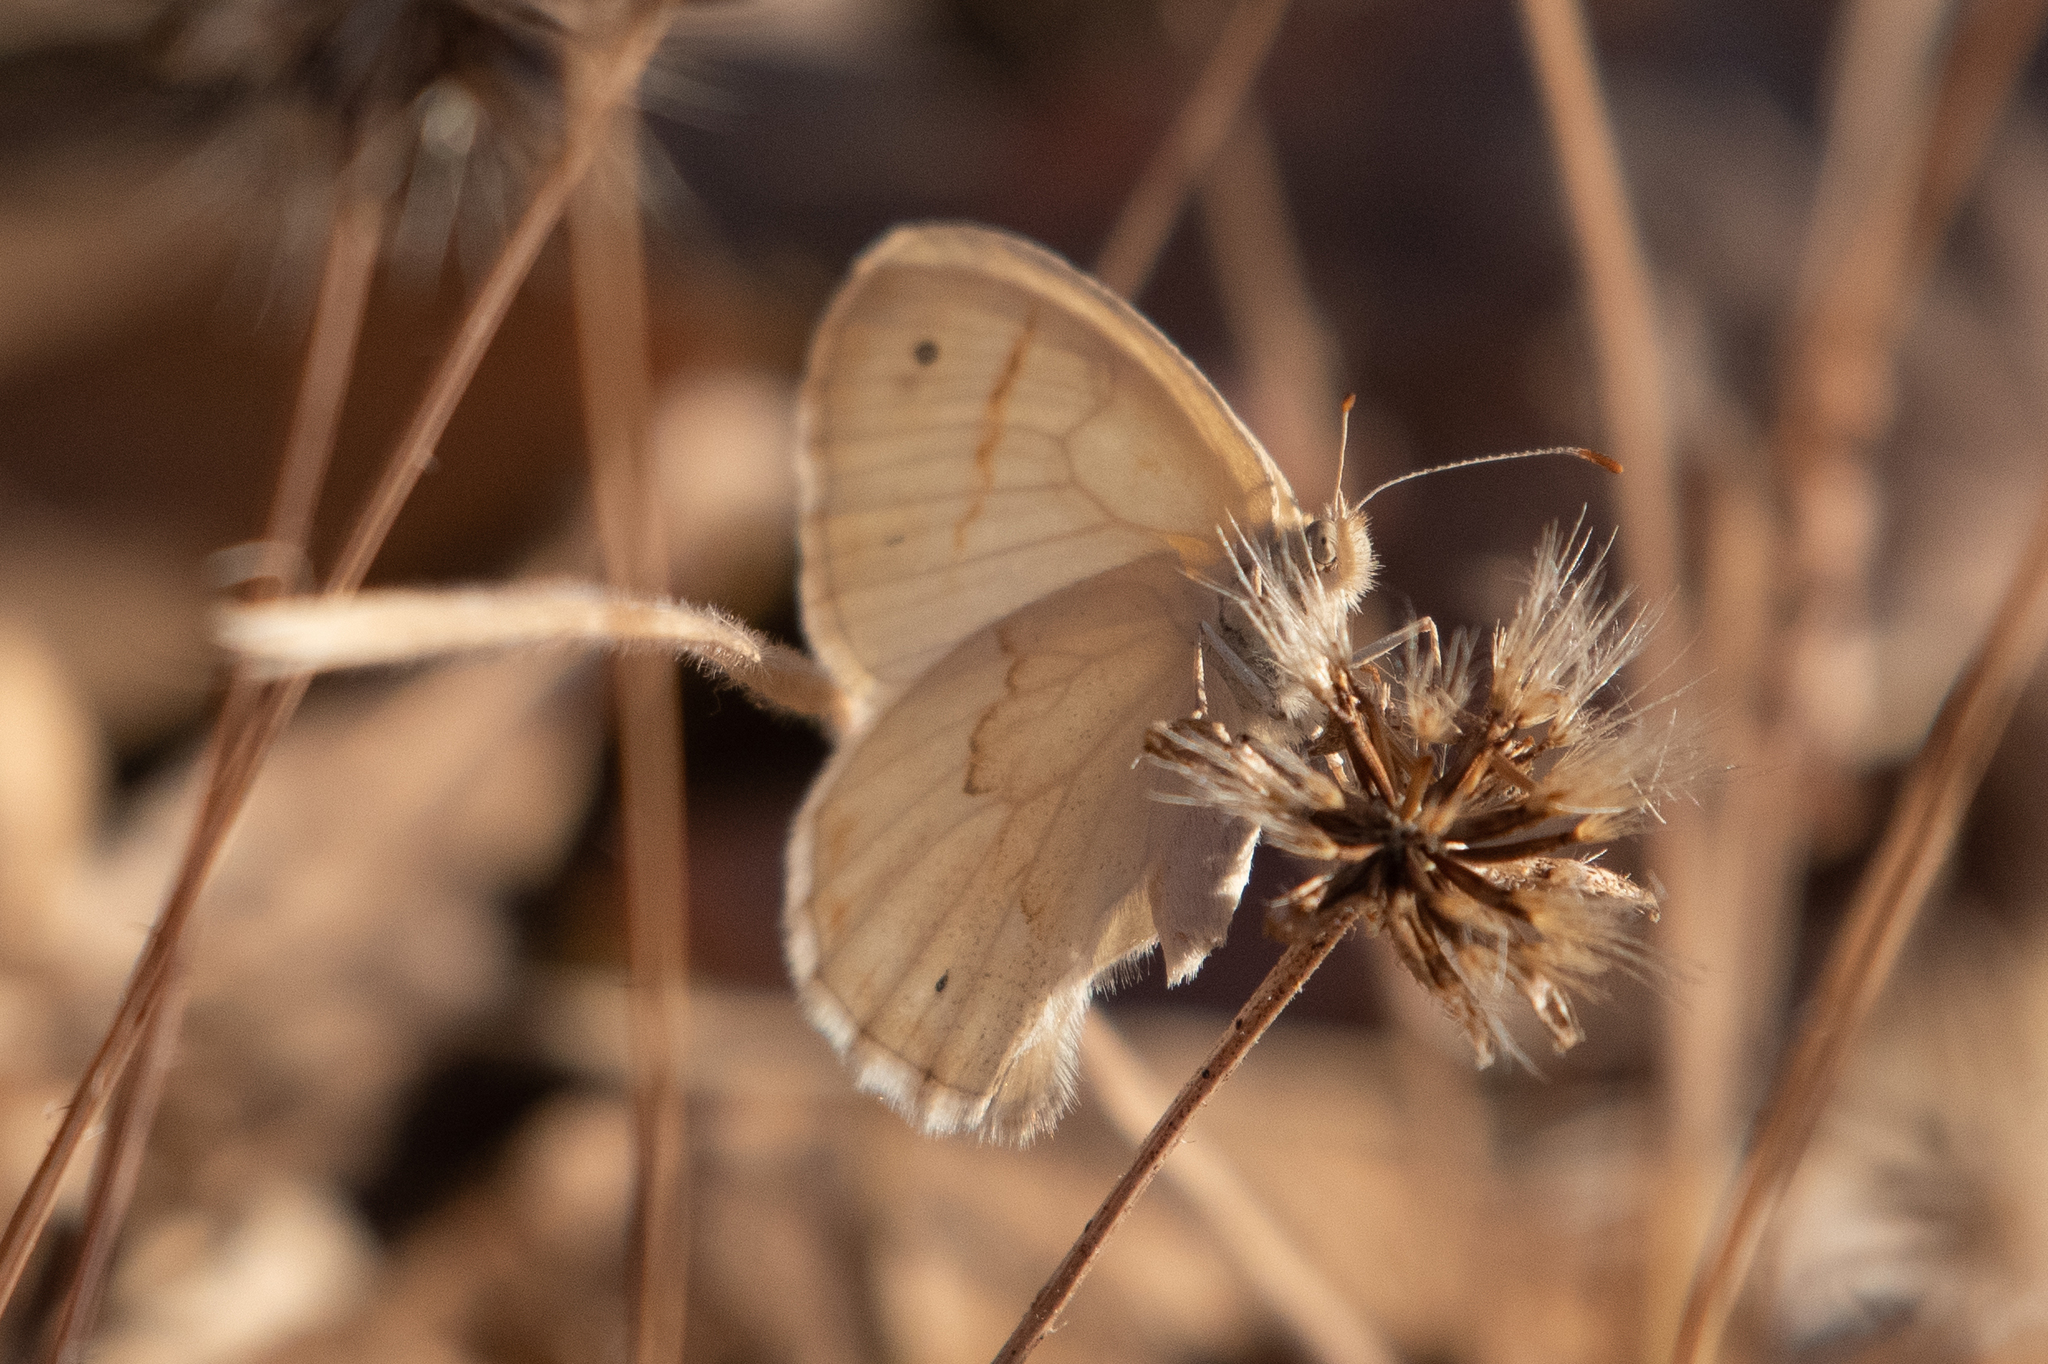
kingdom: Animalia
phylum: Arthropoda
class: Insecta
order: Lepidoptera
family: Nymphalidae
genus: Coenonympha
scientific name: Coenonympha california
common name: Common ringlet
